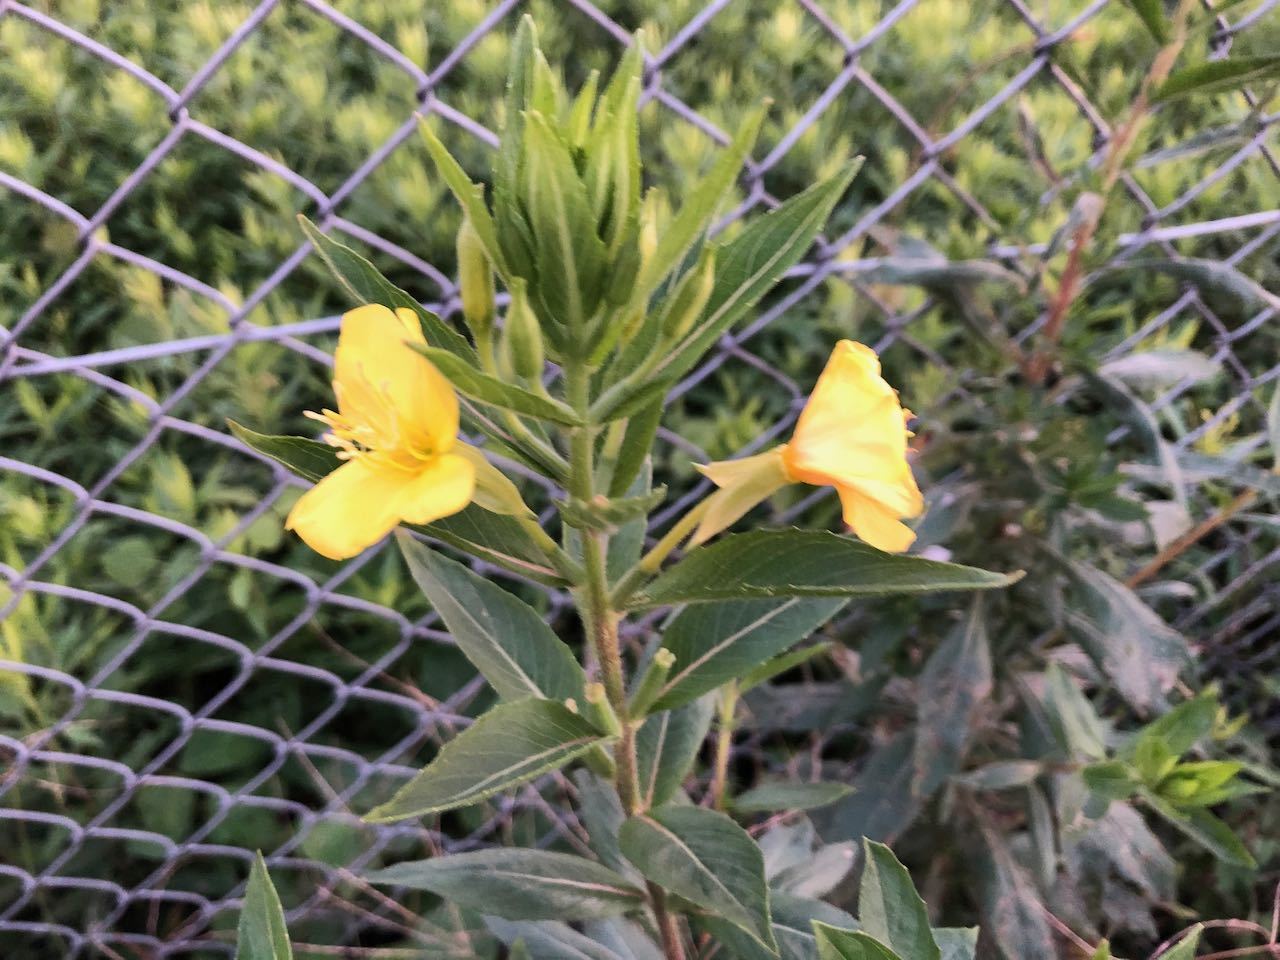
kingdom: Plantae
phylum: Tracheophyta
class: Magnoliopsida
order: Myrtales
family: Onagraceae
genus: Oenothera
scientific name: Oenothera biennis
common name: Common evening-primrose
